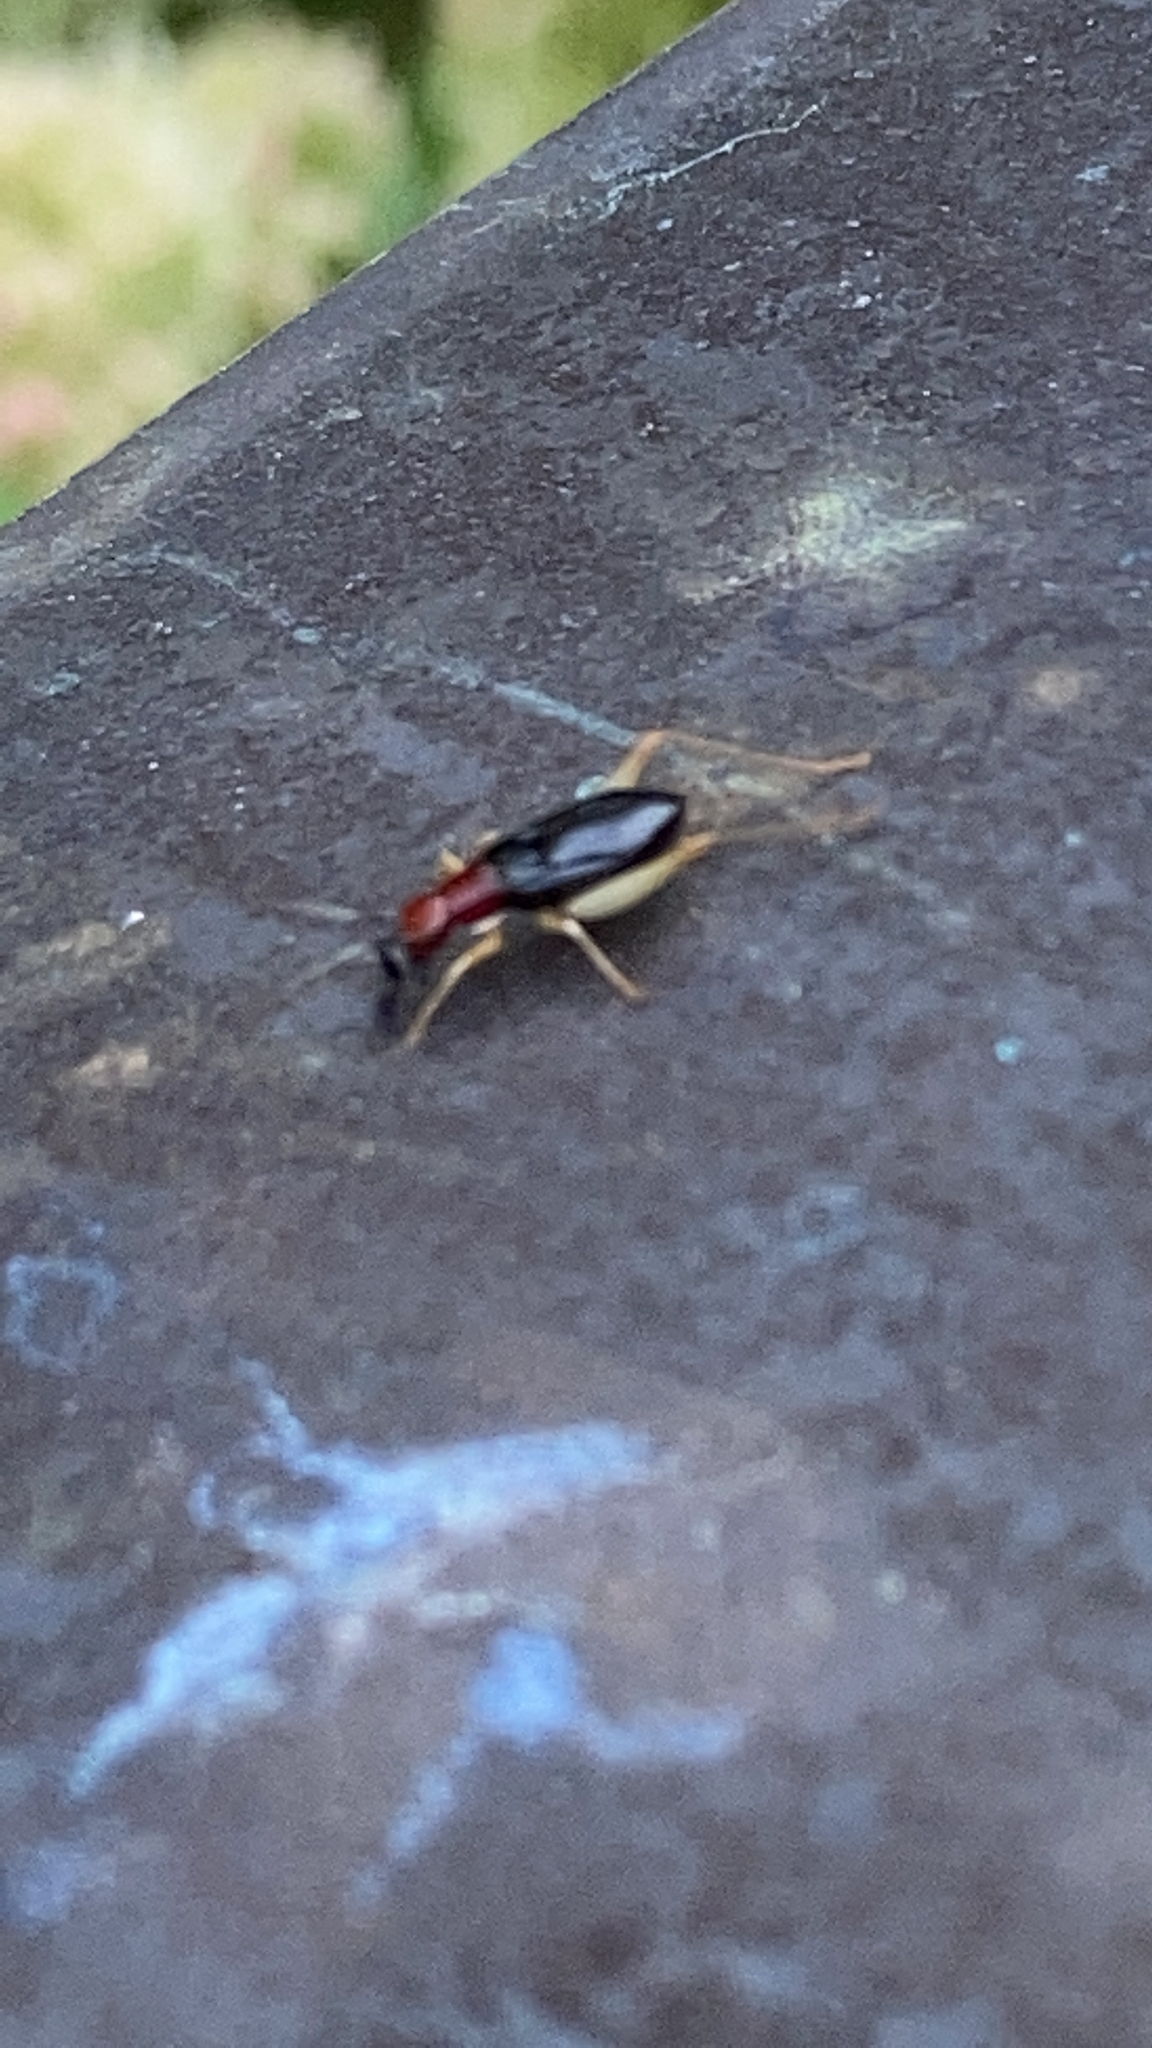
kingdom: Animalia
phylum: Arthropoda
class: Insecta
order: Orthoptera
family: Trigonidiidae
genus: Phyllopalpus
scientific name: Phyllopalpus pulchellus
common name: Handsome trig
